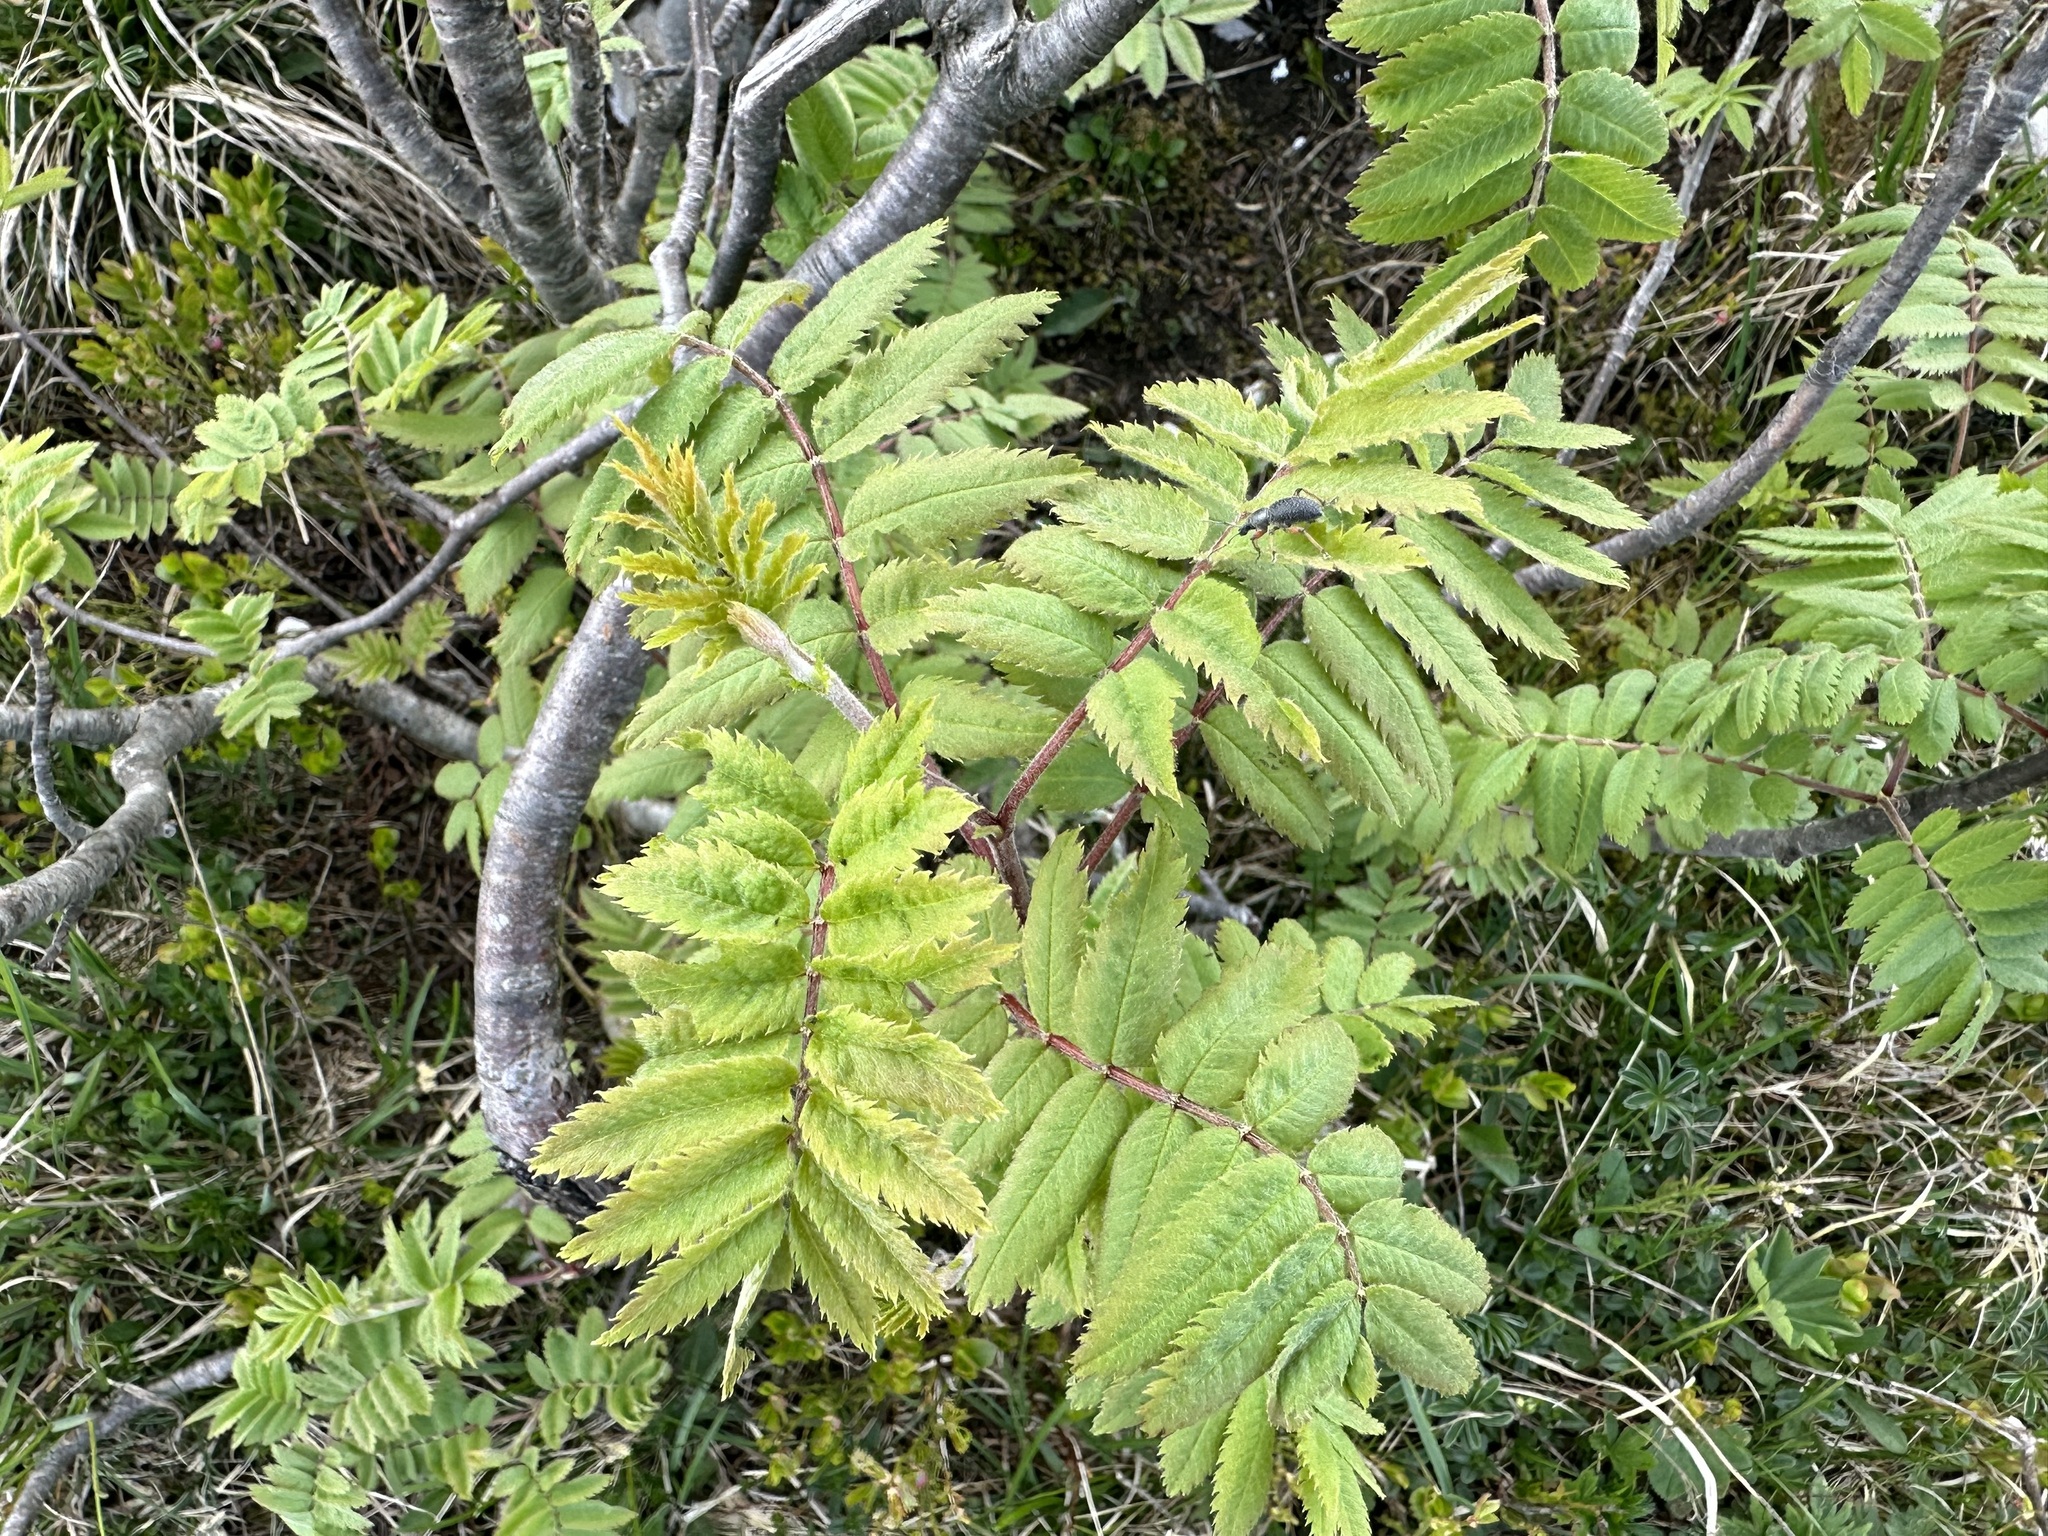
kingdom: Plantae
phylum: Tracheophyta
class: Magnoliopsida
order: Rosales
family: Rosaceae
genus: Sorbus
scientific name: Sorbus aucuparia
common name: Rowan
